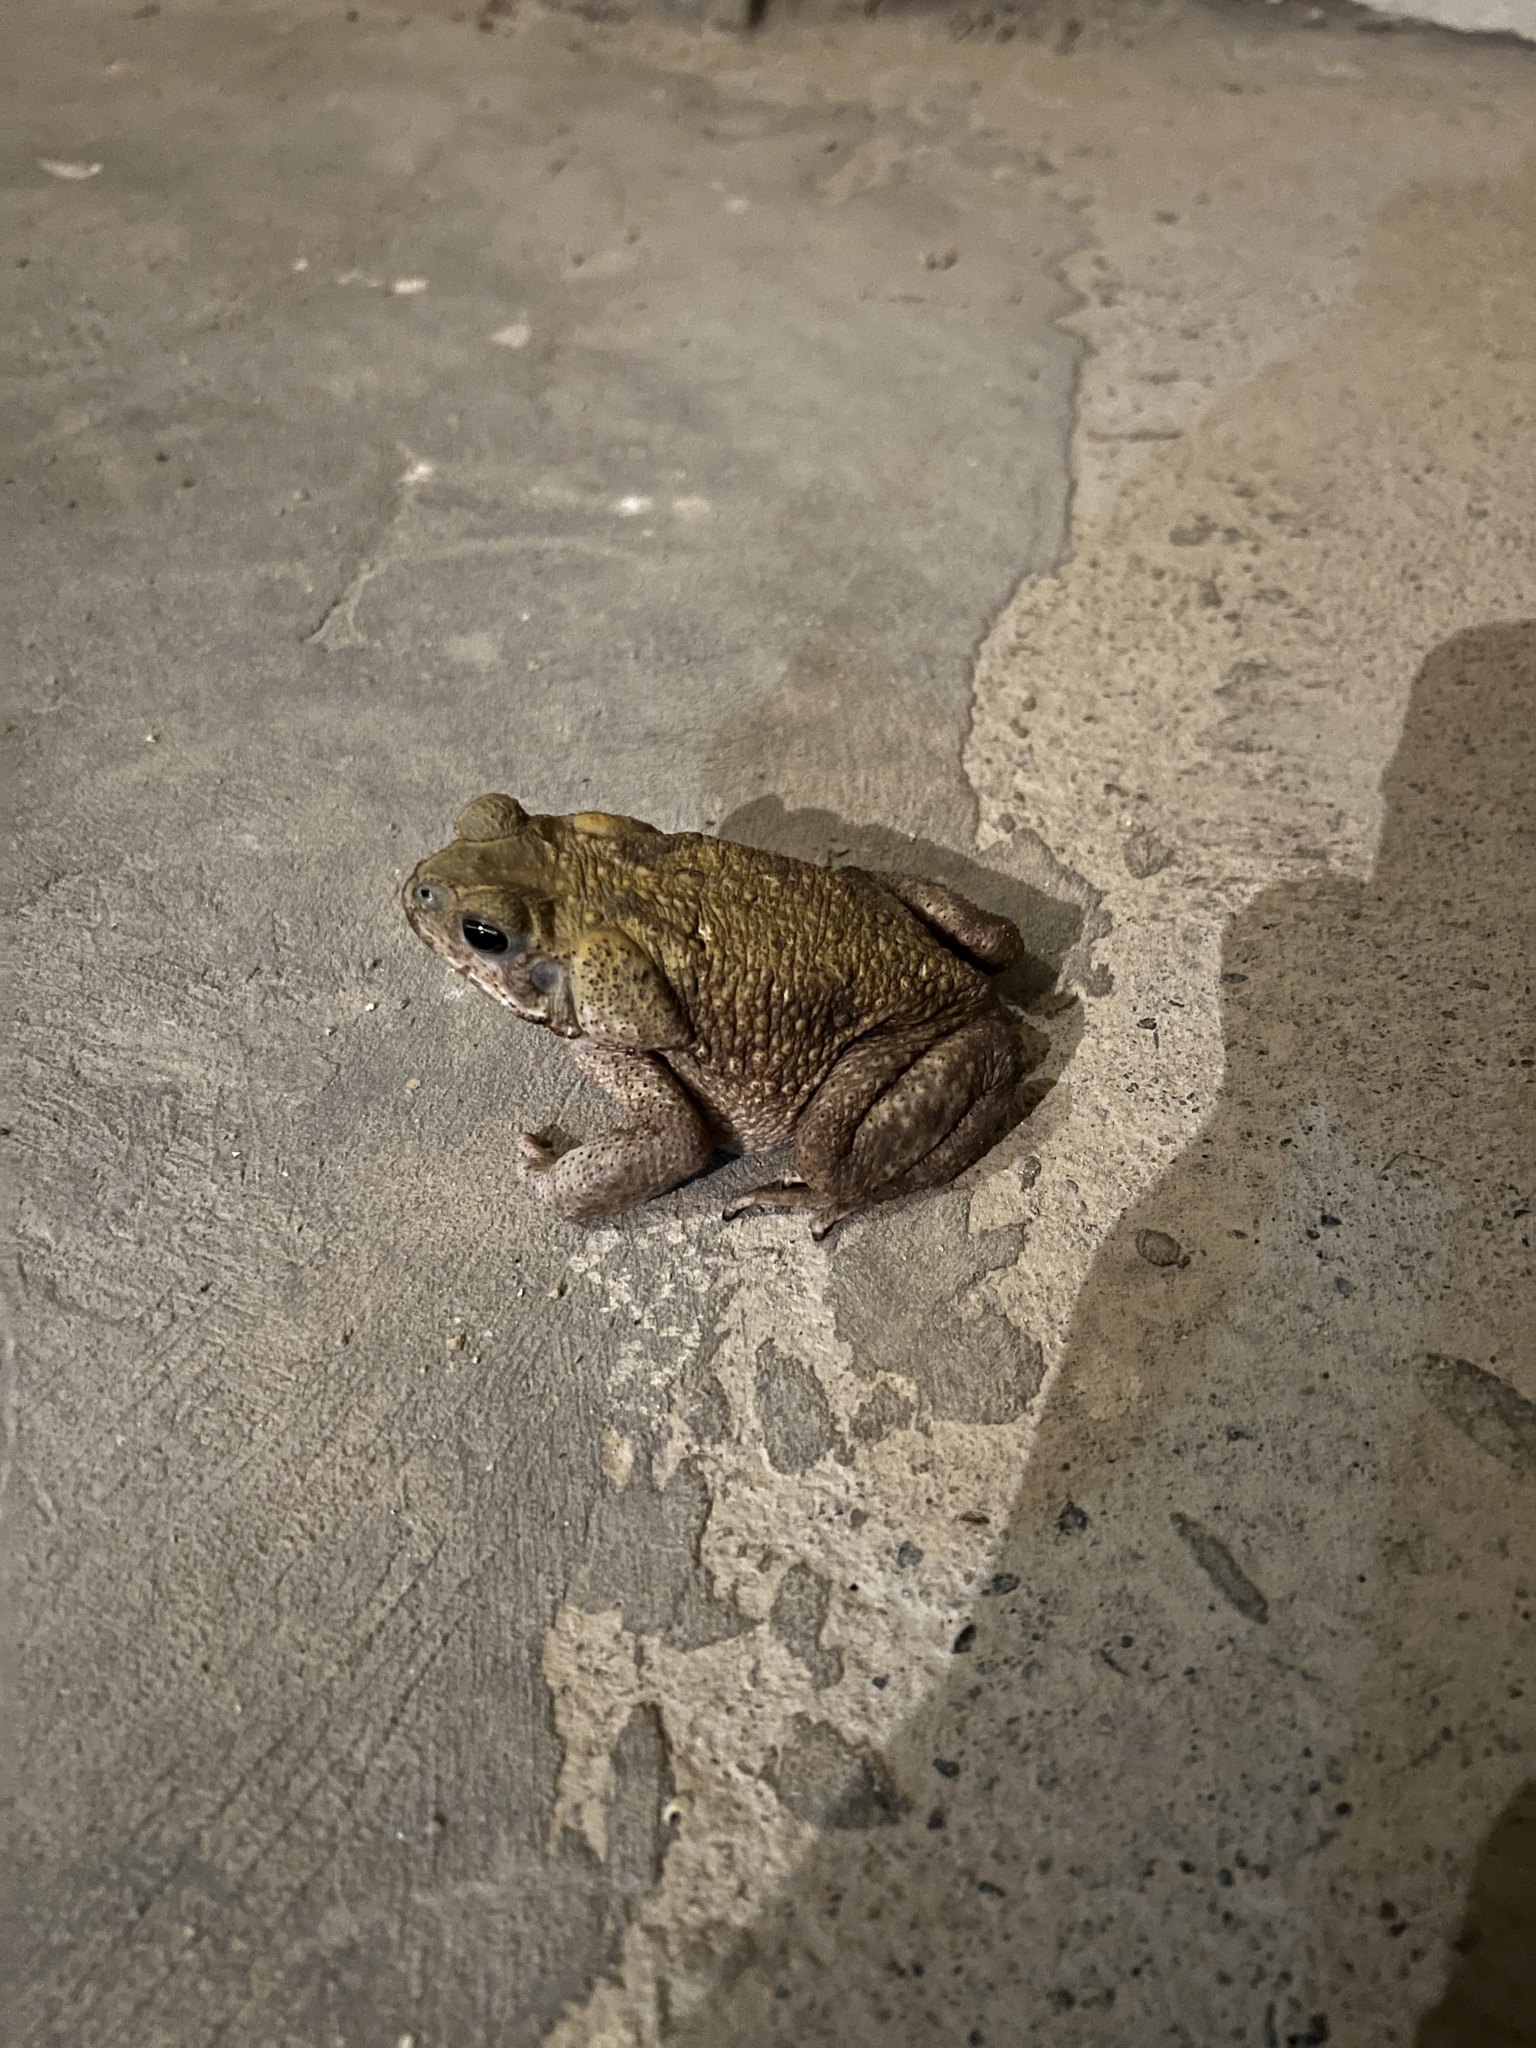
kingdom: Animalia
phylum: Chordata
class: Amphibia
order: Anura
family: Bufonidae
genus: Rhinella
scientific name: Rhinella horribilis
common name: Mesoamerican cane toad
